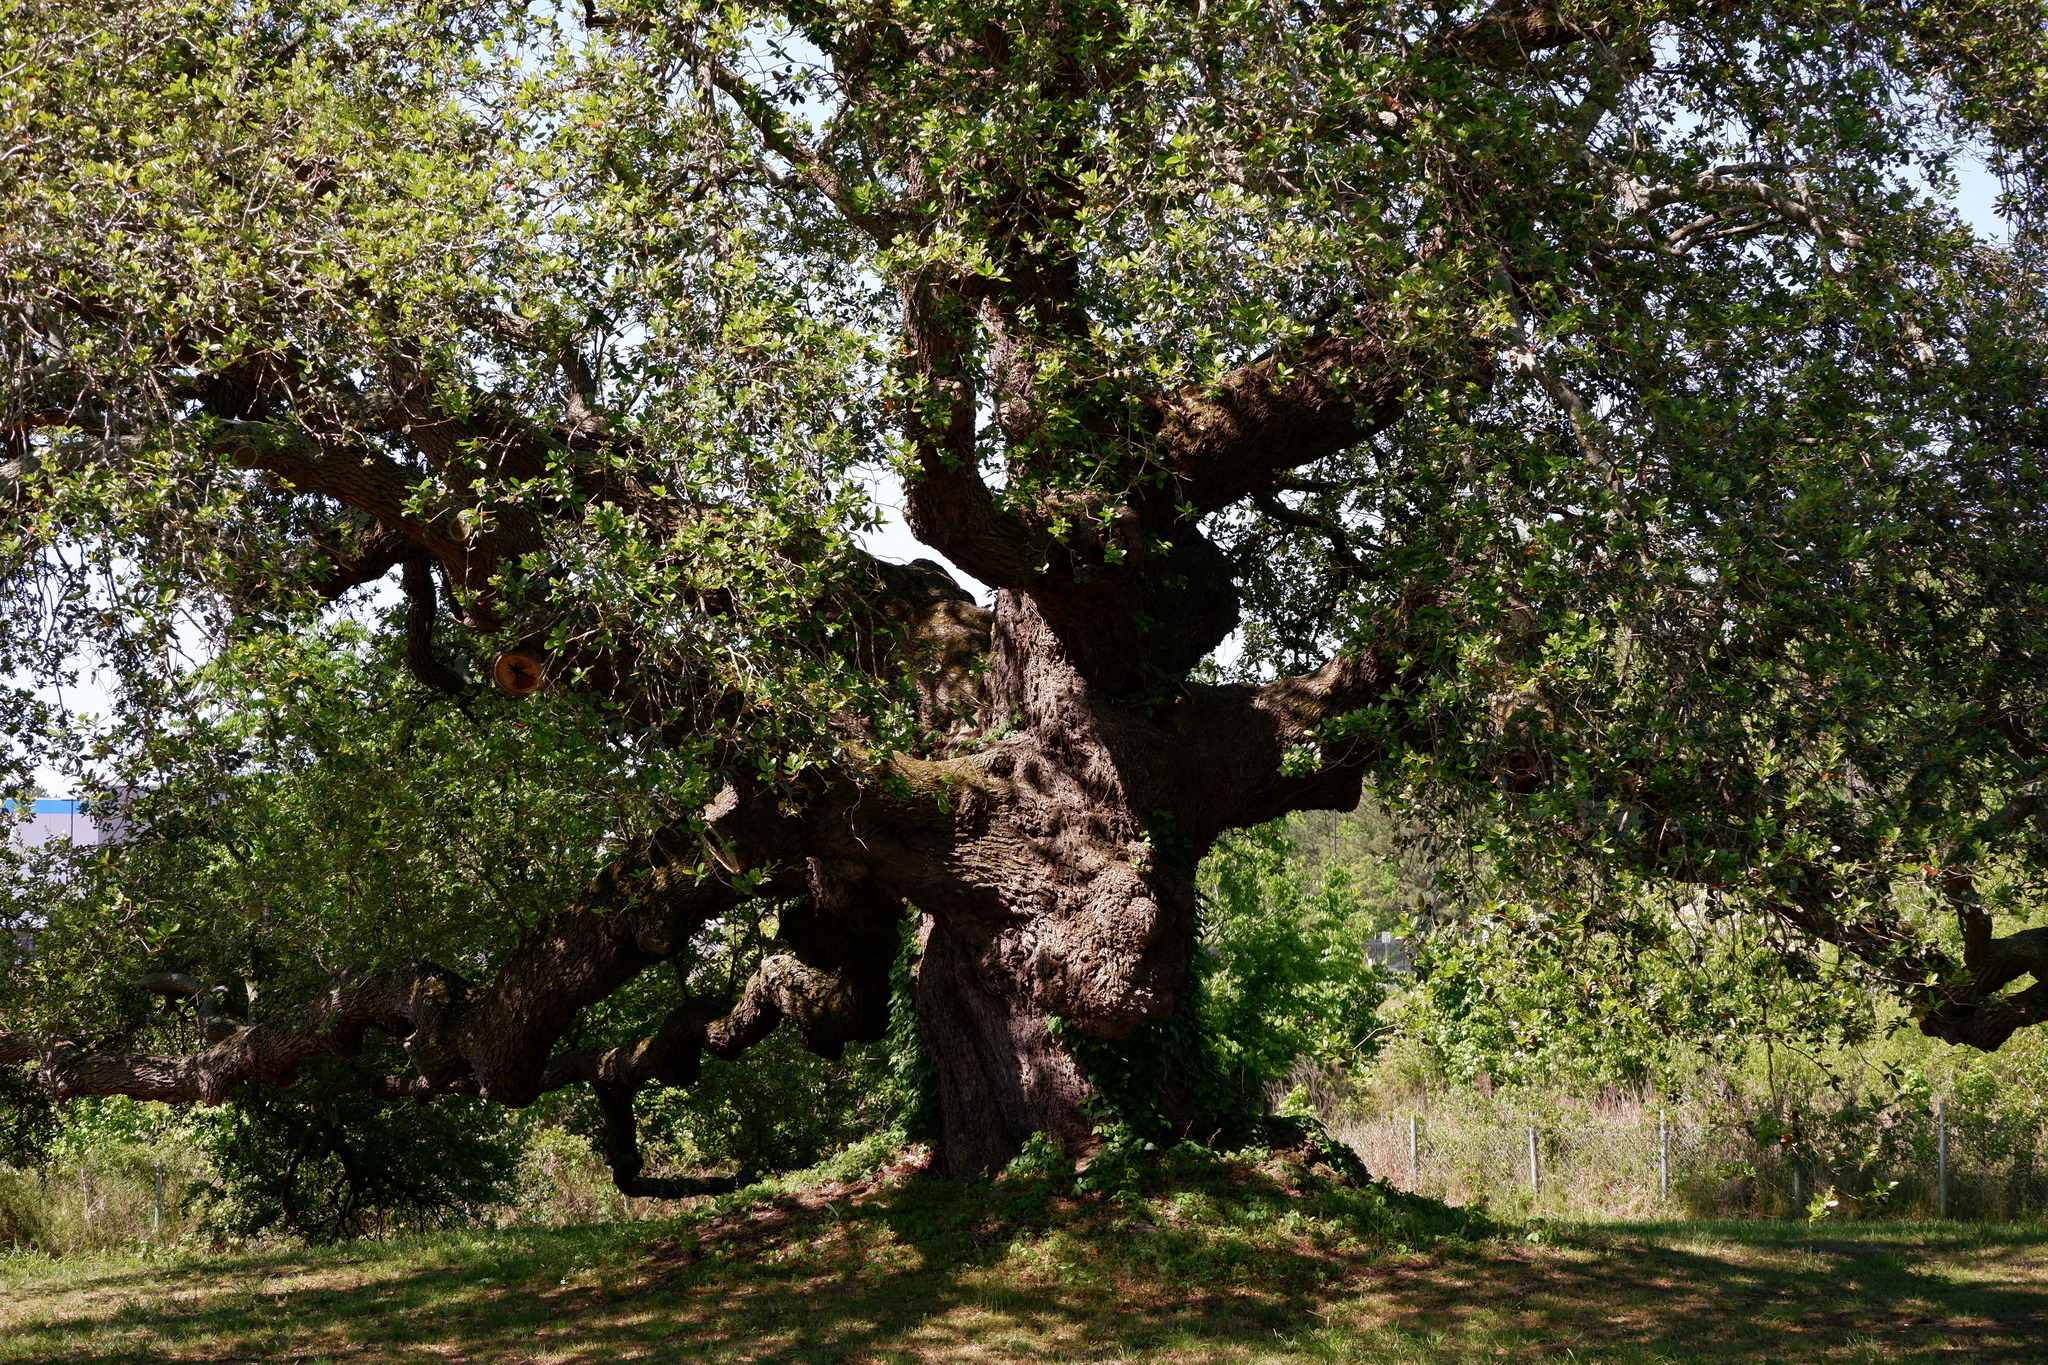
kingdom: Plantae
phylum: Tracheophyta
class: Magnoliopsida
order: Fagales
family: Fagaceae
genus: Quercus
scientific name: Quercus virginiana
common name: Southern live oak
